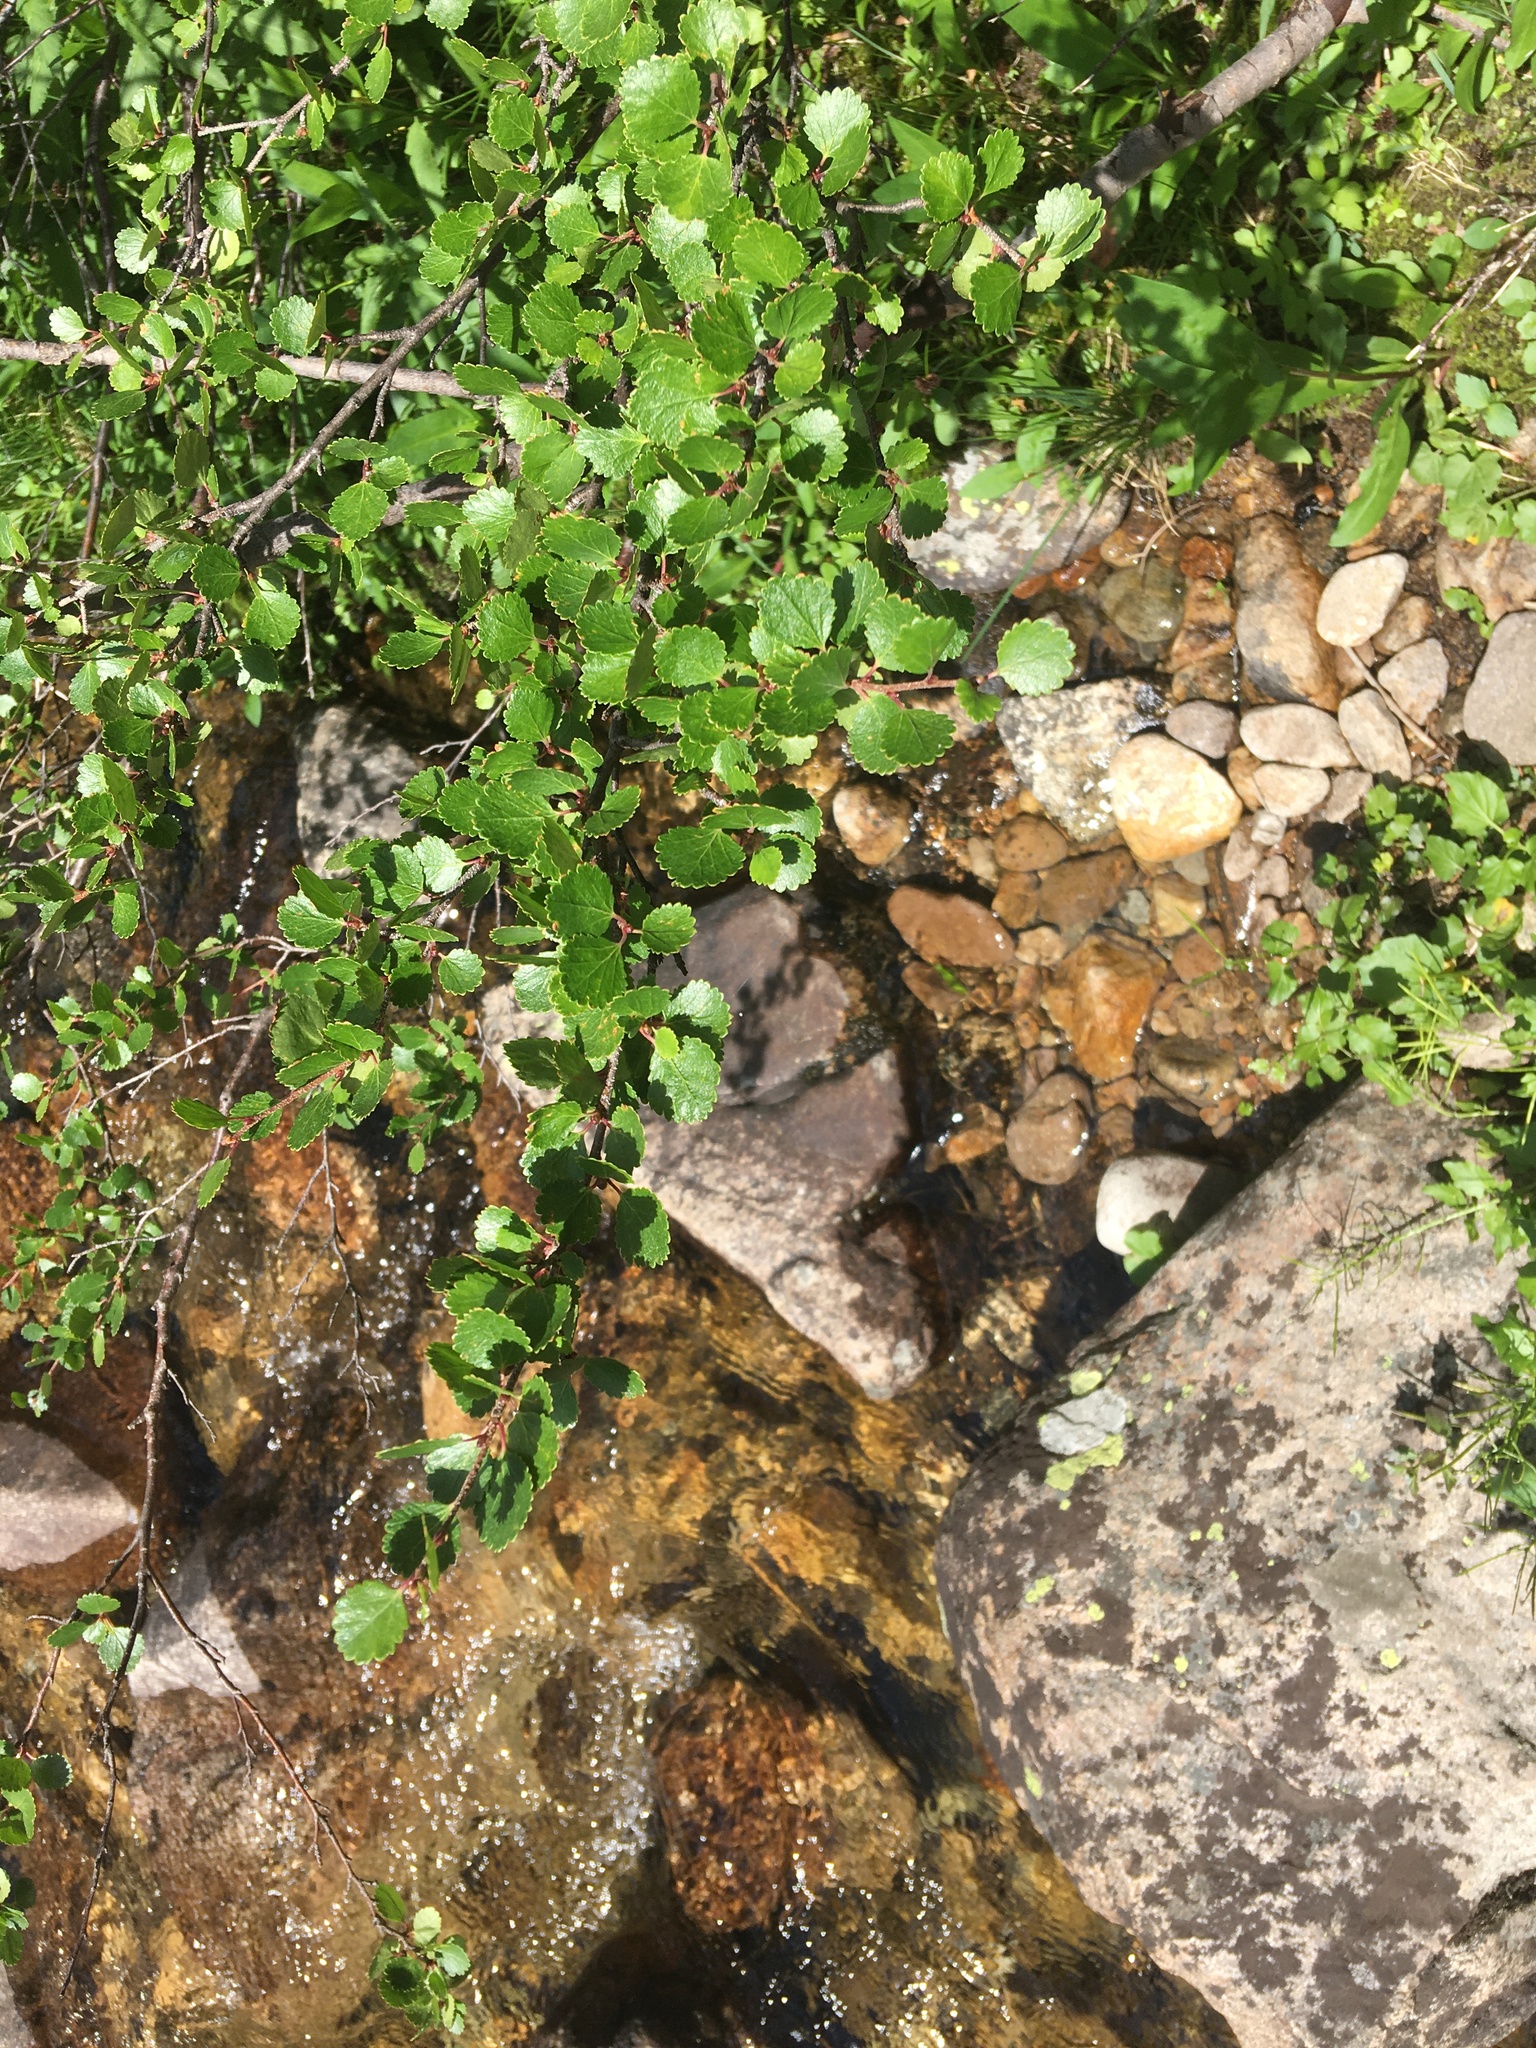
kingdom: Plantae
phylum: Tracheophyta
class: Magnoliopsida
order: Fagales
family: Betulaceae
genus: Betula
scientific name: Betula glandulosa
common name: Dwarf birch
